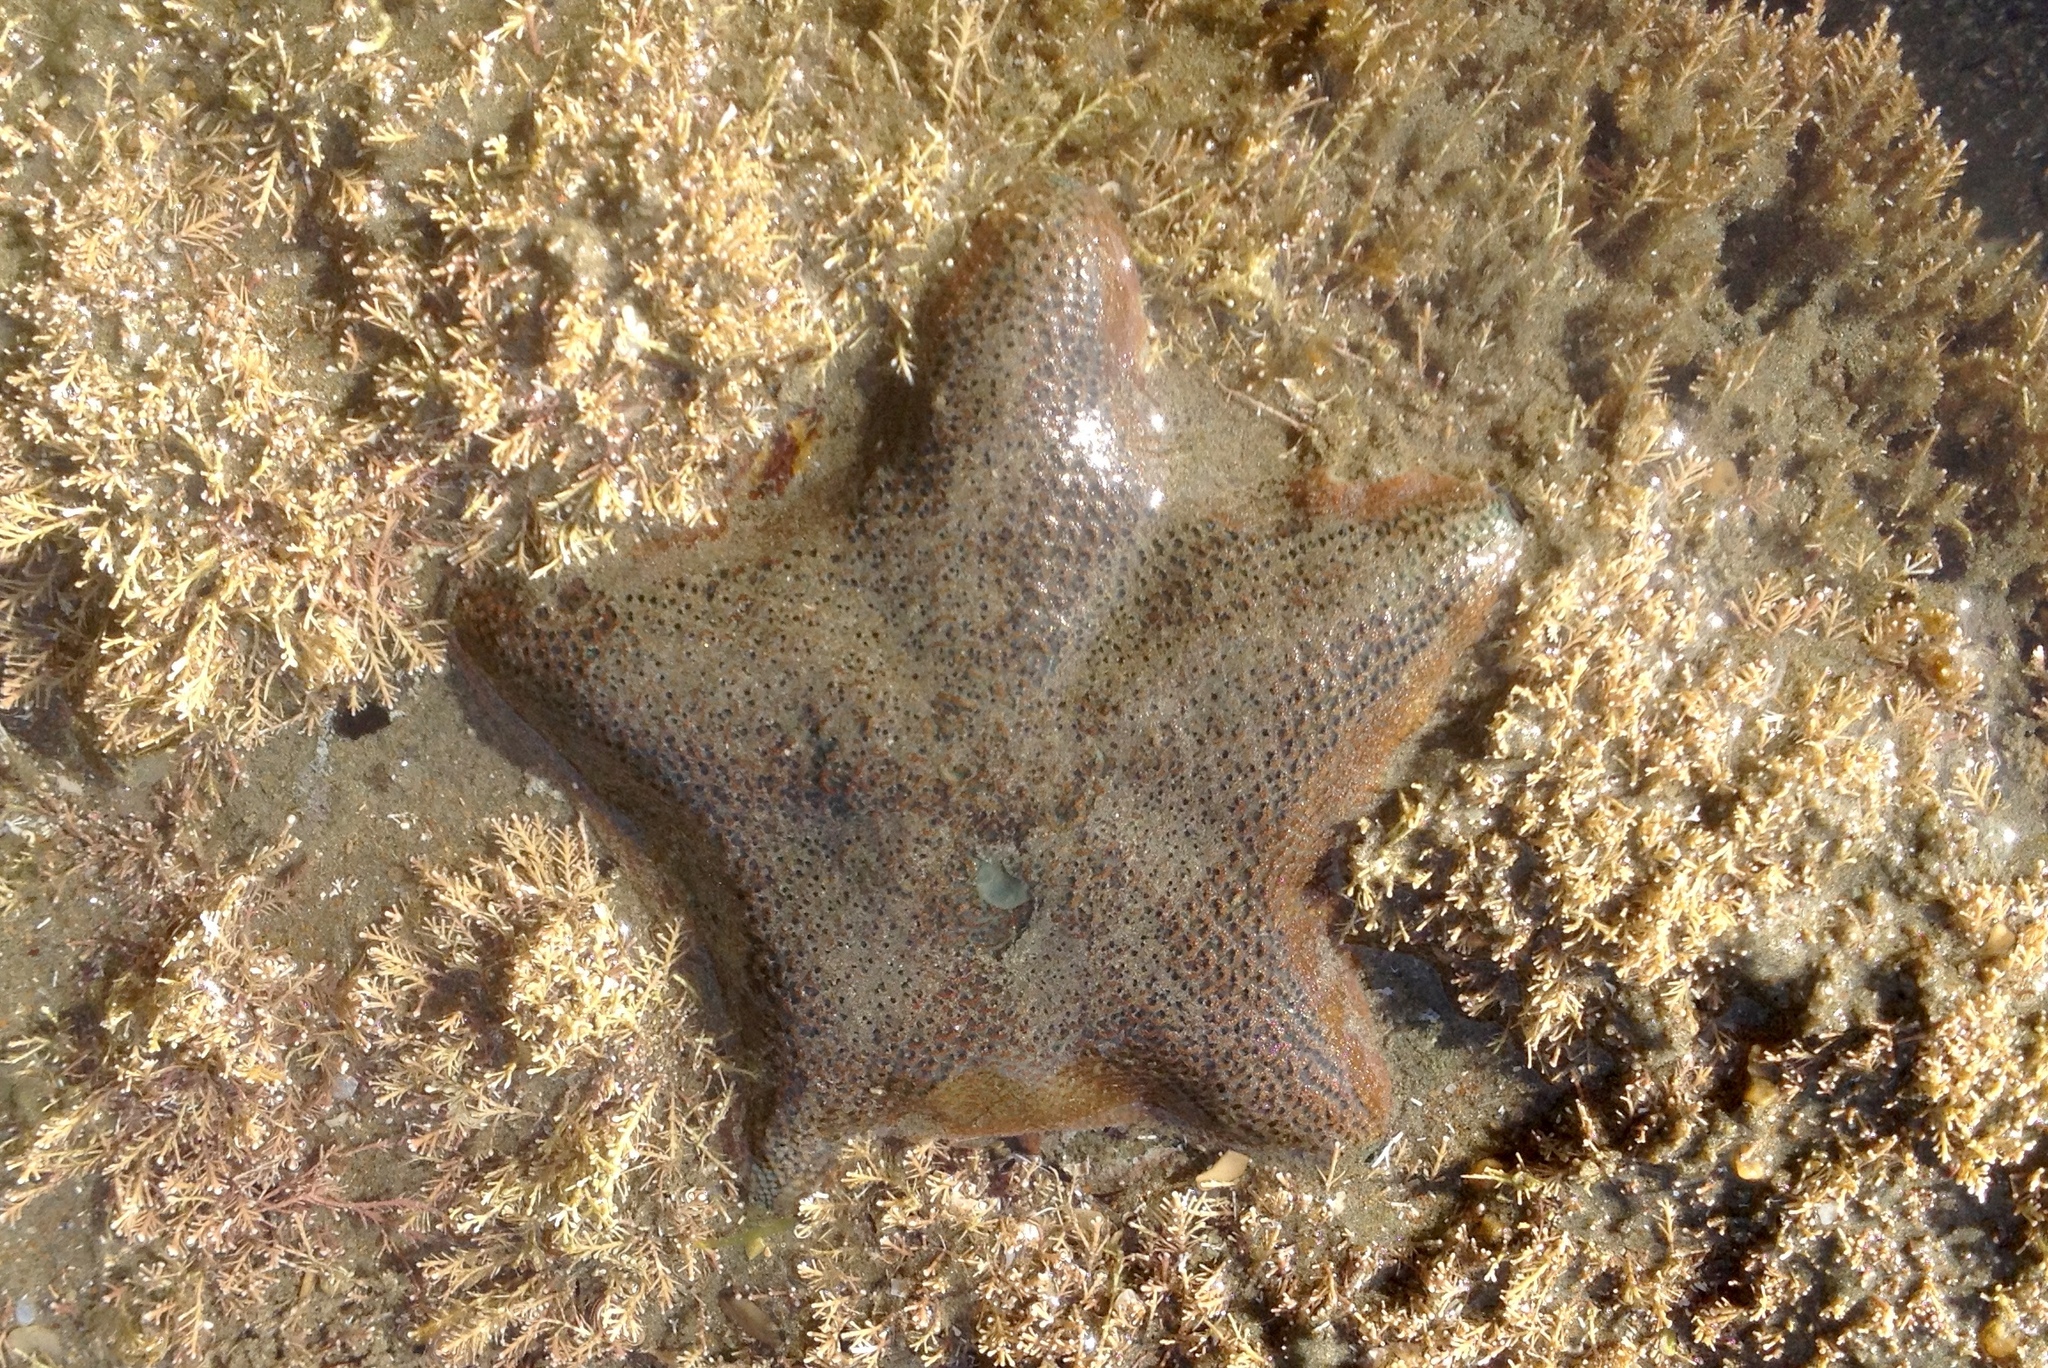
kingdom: Animalia
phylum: Echinodermata
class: Asteroidea
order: Valvatida
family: Asterinidae
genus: Patiriella
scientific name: Patiriella regularis
